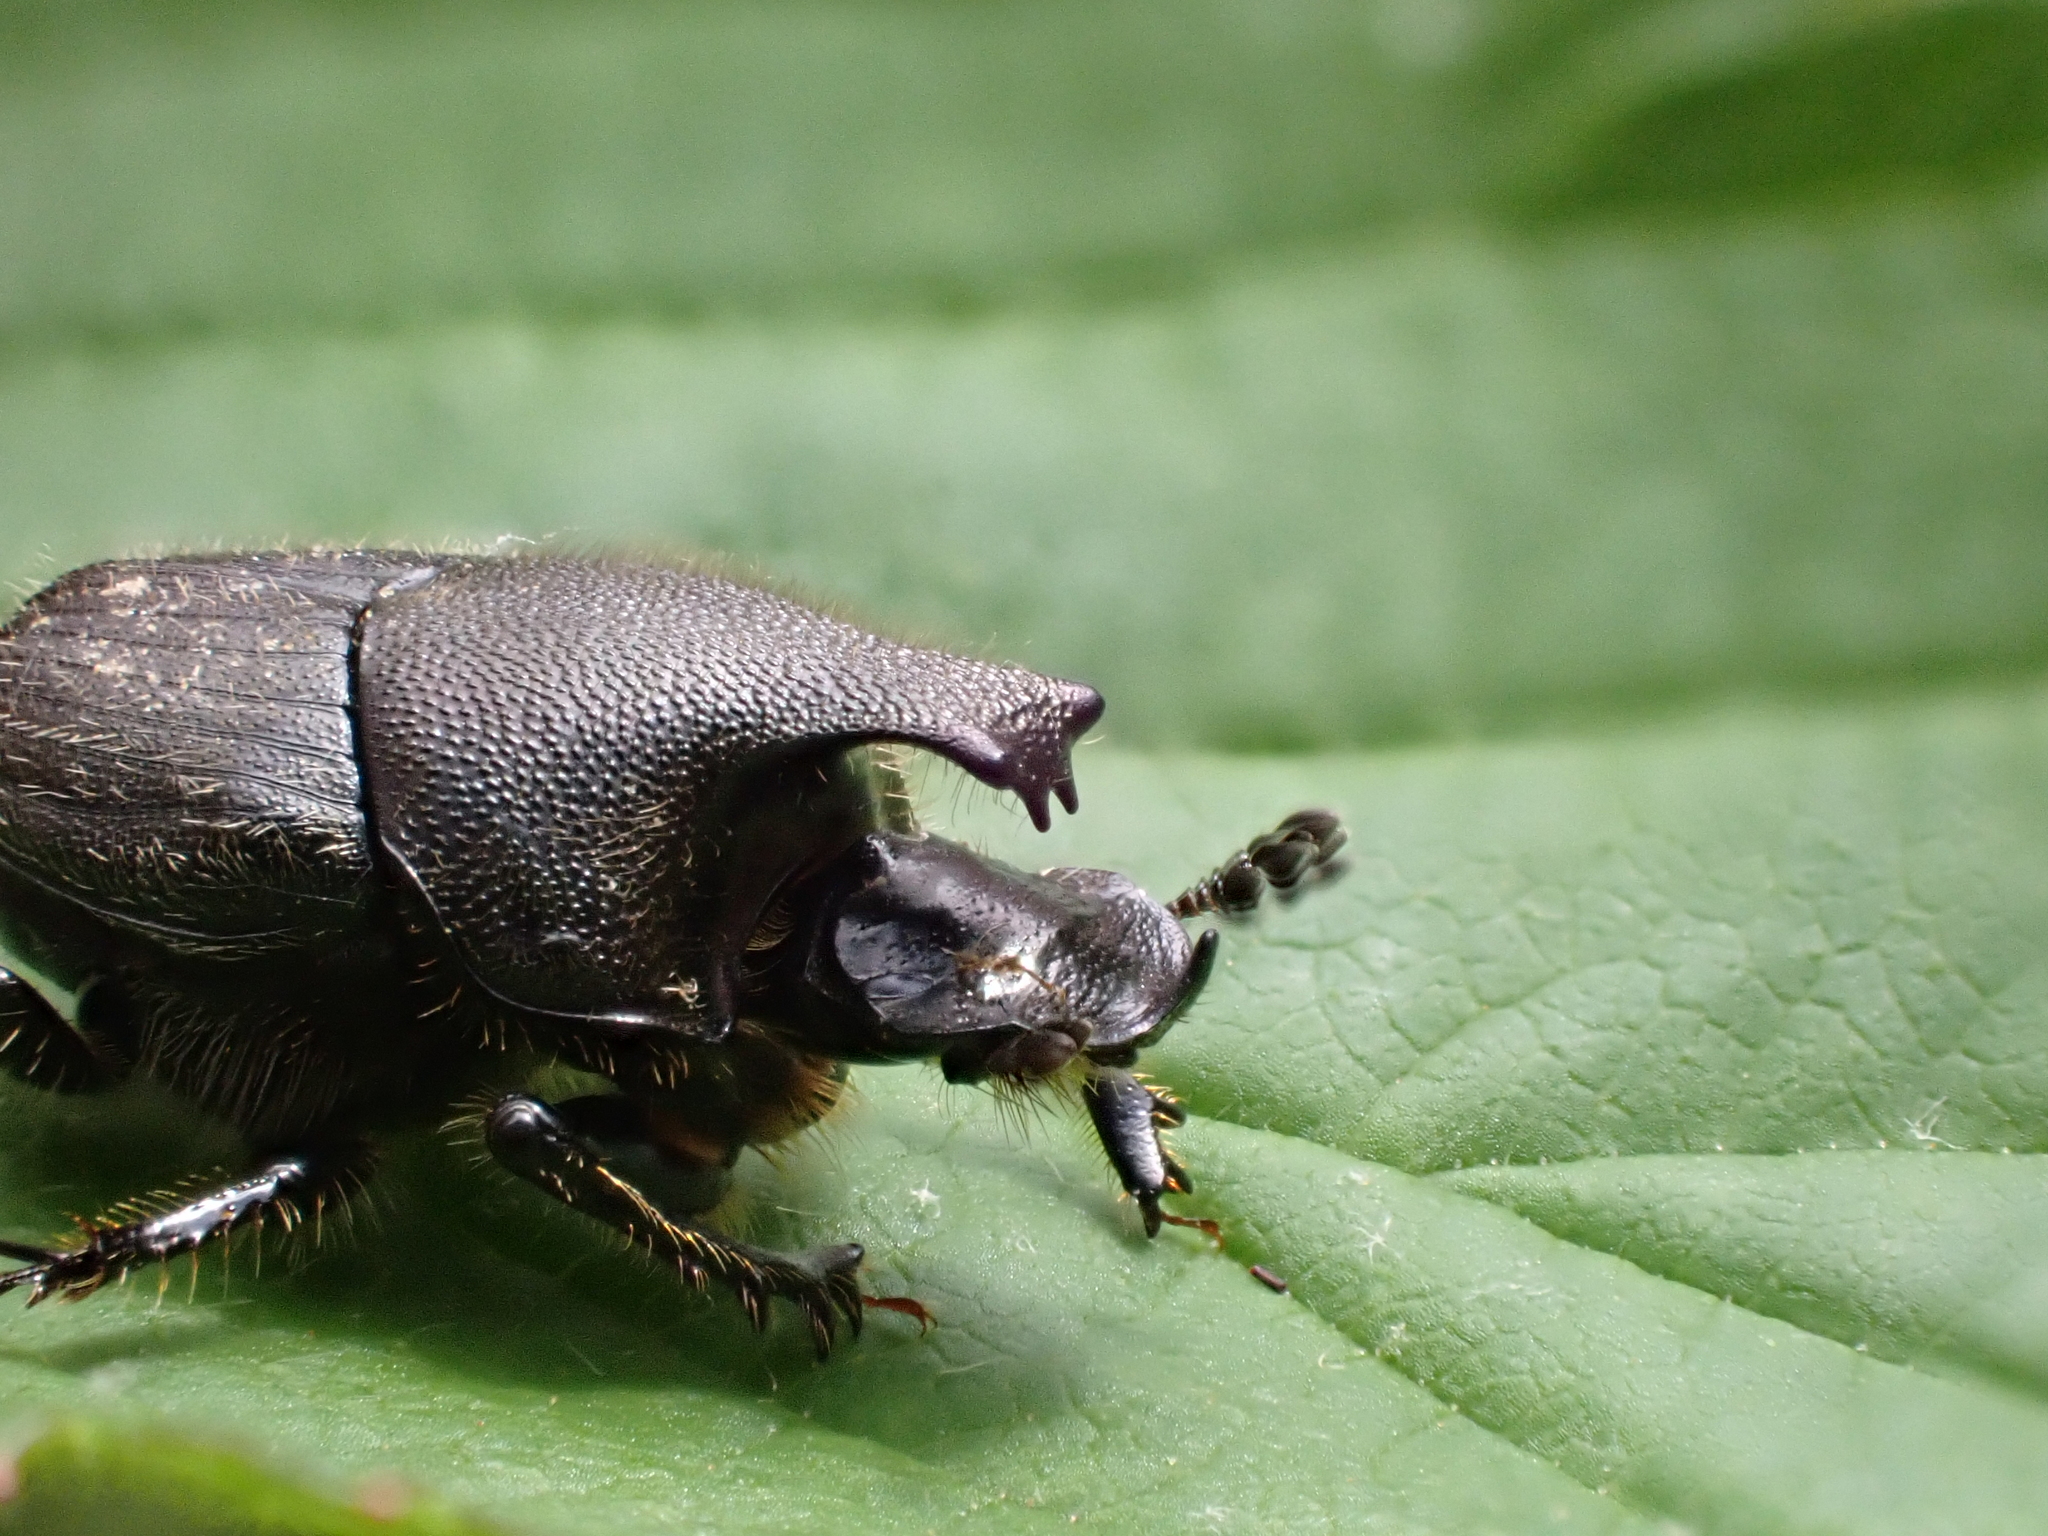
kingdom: Animalia
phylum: Arthropoda
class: Insecta
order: Coleoptera
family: Scarabaeidae
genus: Onthophagus
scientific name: Onthophagus hecate
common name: Scooped scarab
